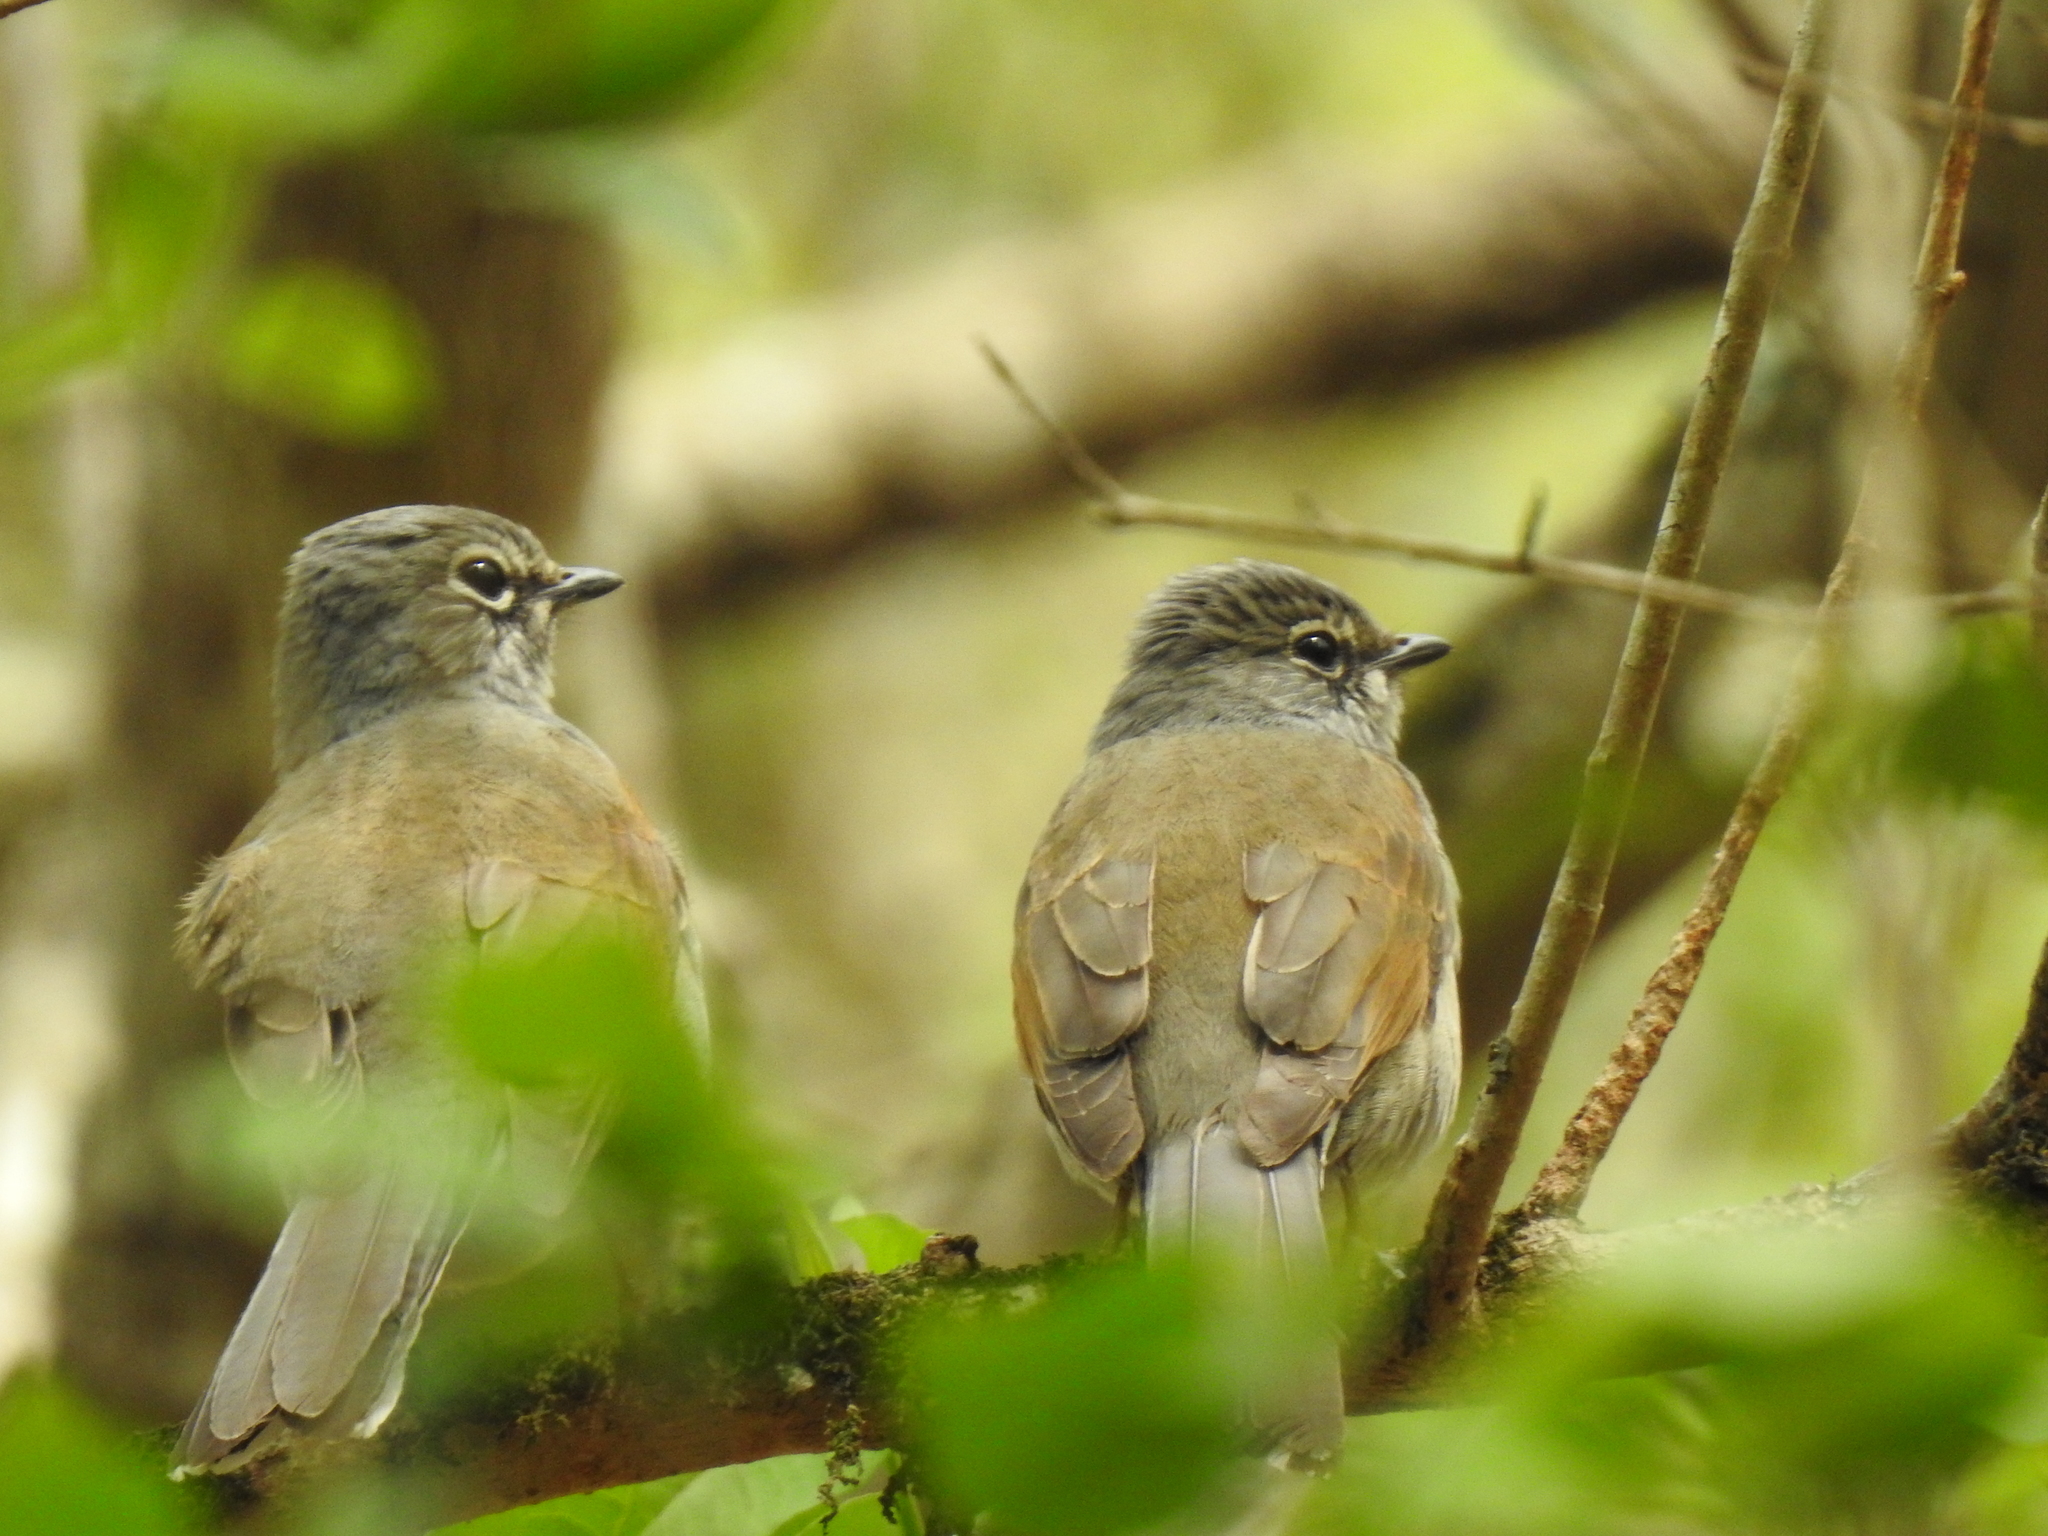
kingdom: Animalia
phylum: Chordata
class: Aves
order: Passeriformes
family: Turdidae
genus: Myadestes
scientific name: Myadestes occidentalis
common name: Brown-backed solitaire
